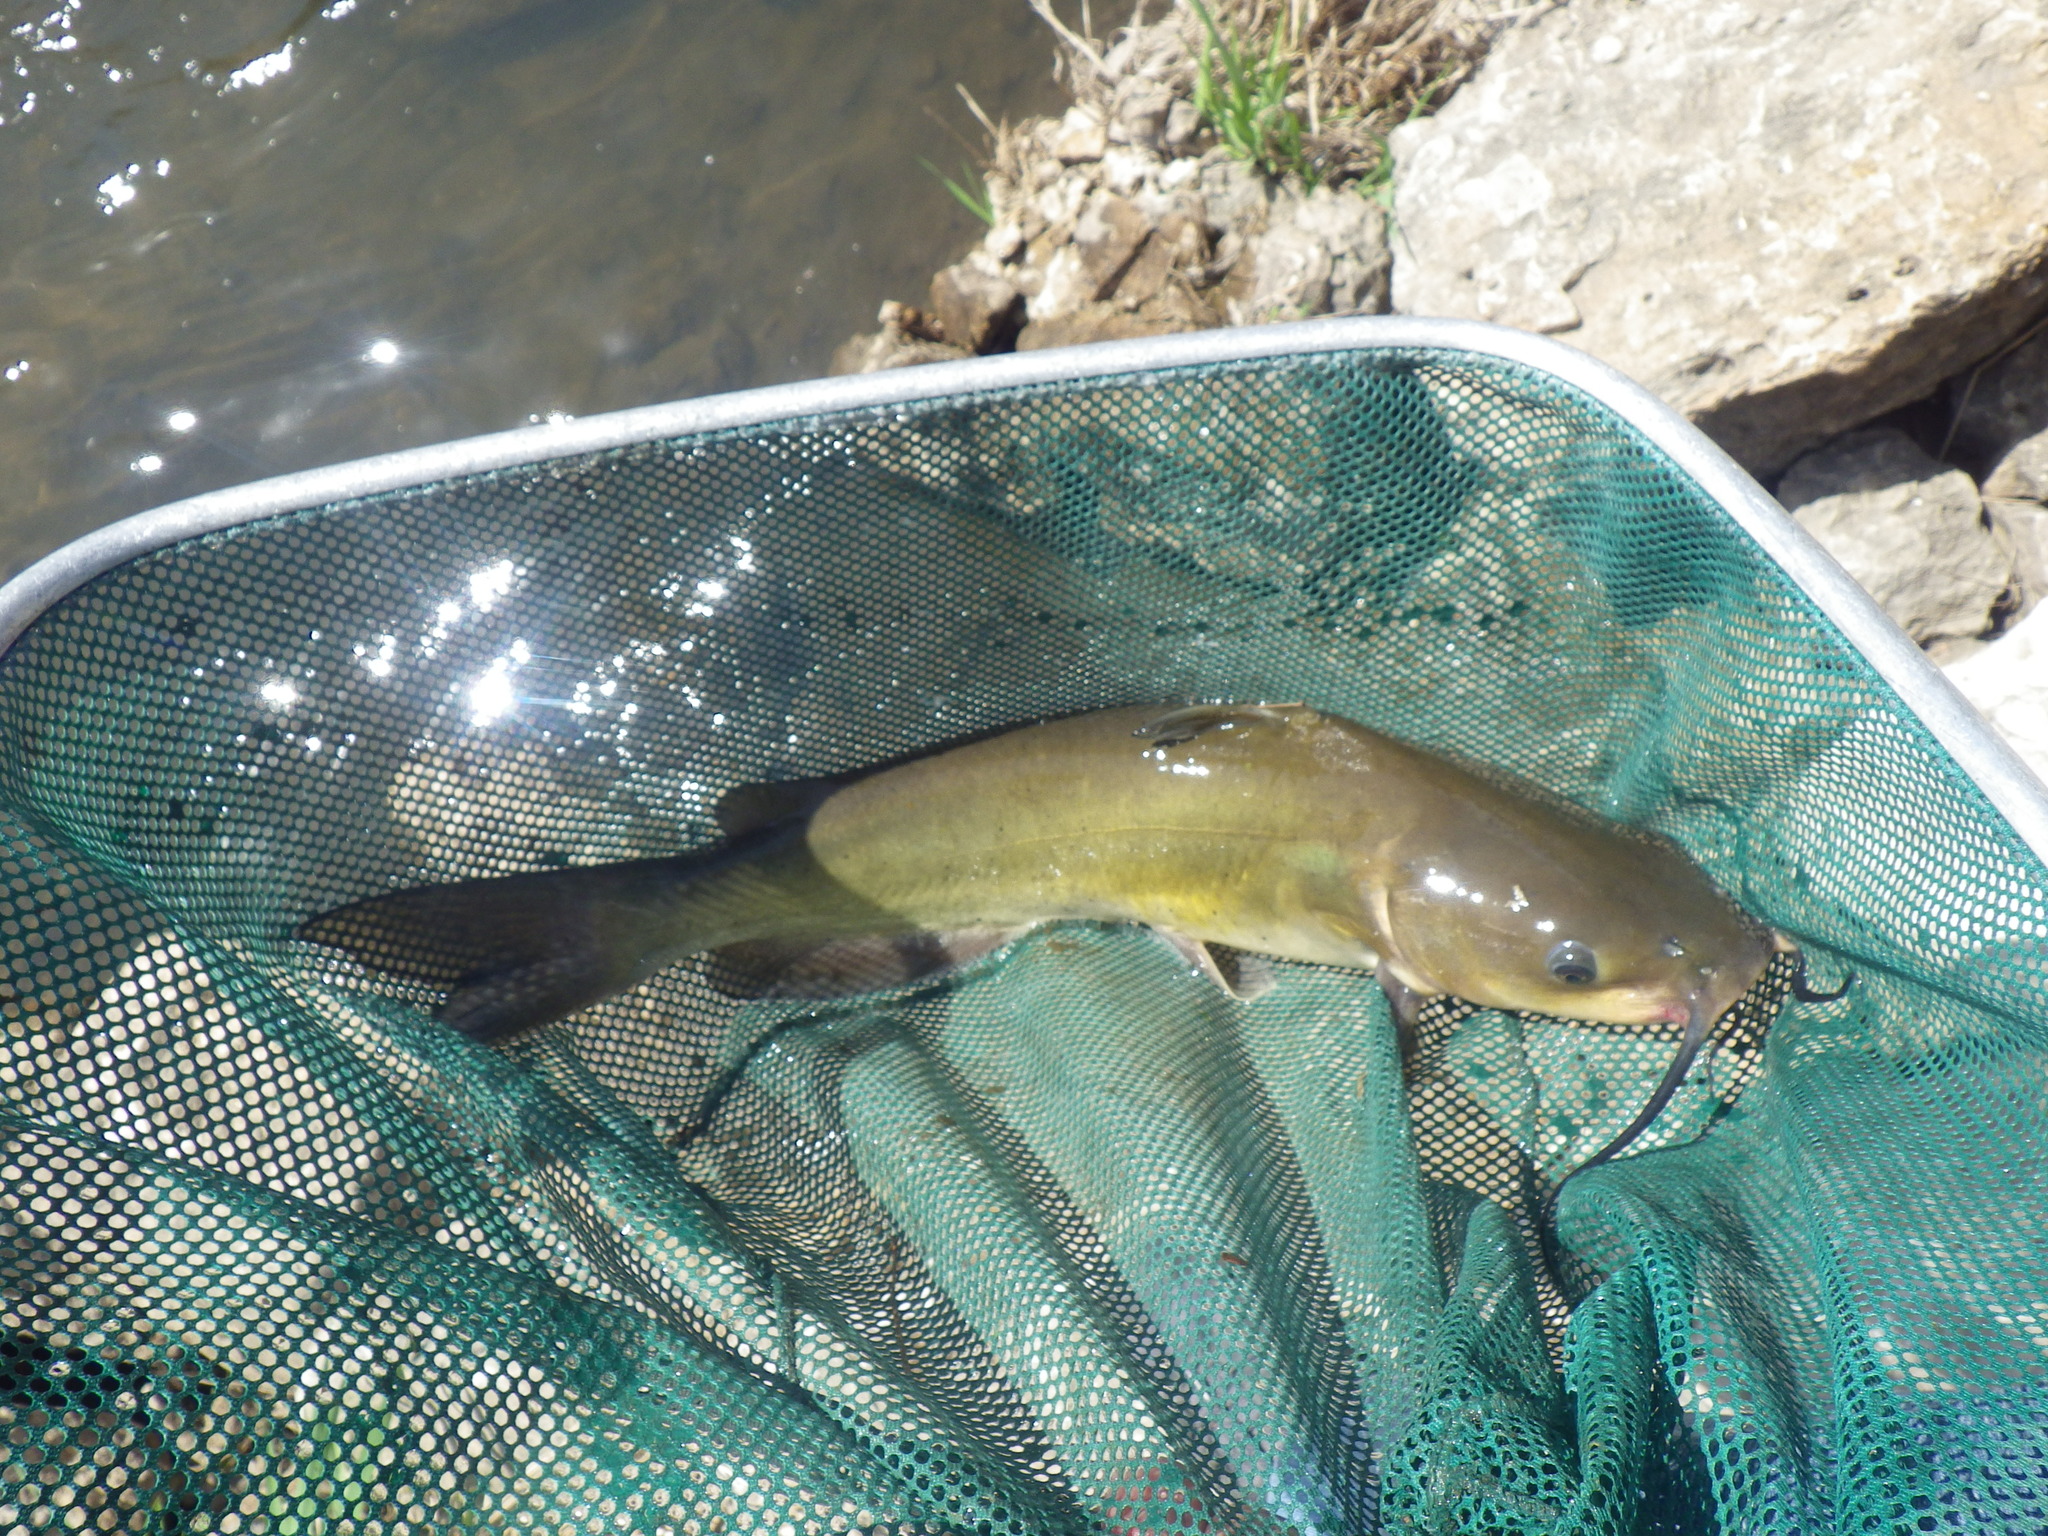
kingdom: Animalia
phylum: Chordata
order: Siluriformes
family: Ictaluridae
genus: Ictalurus
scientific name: Ictalurus punctatus
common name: Channel catfish
